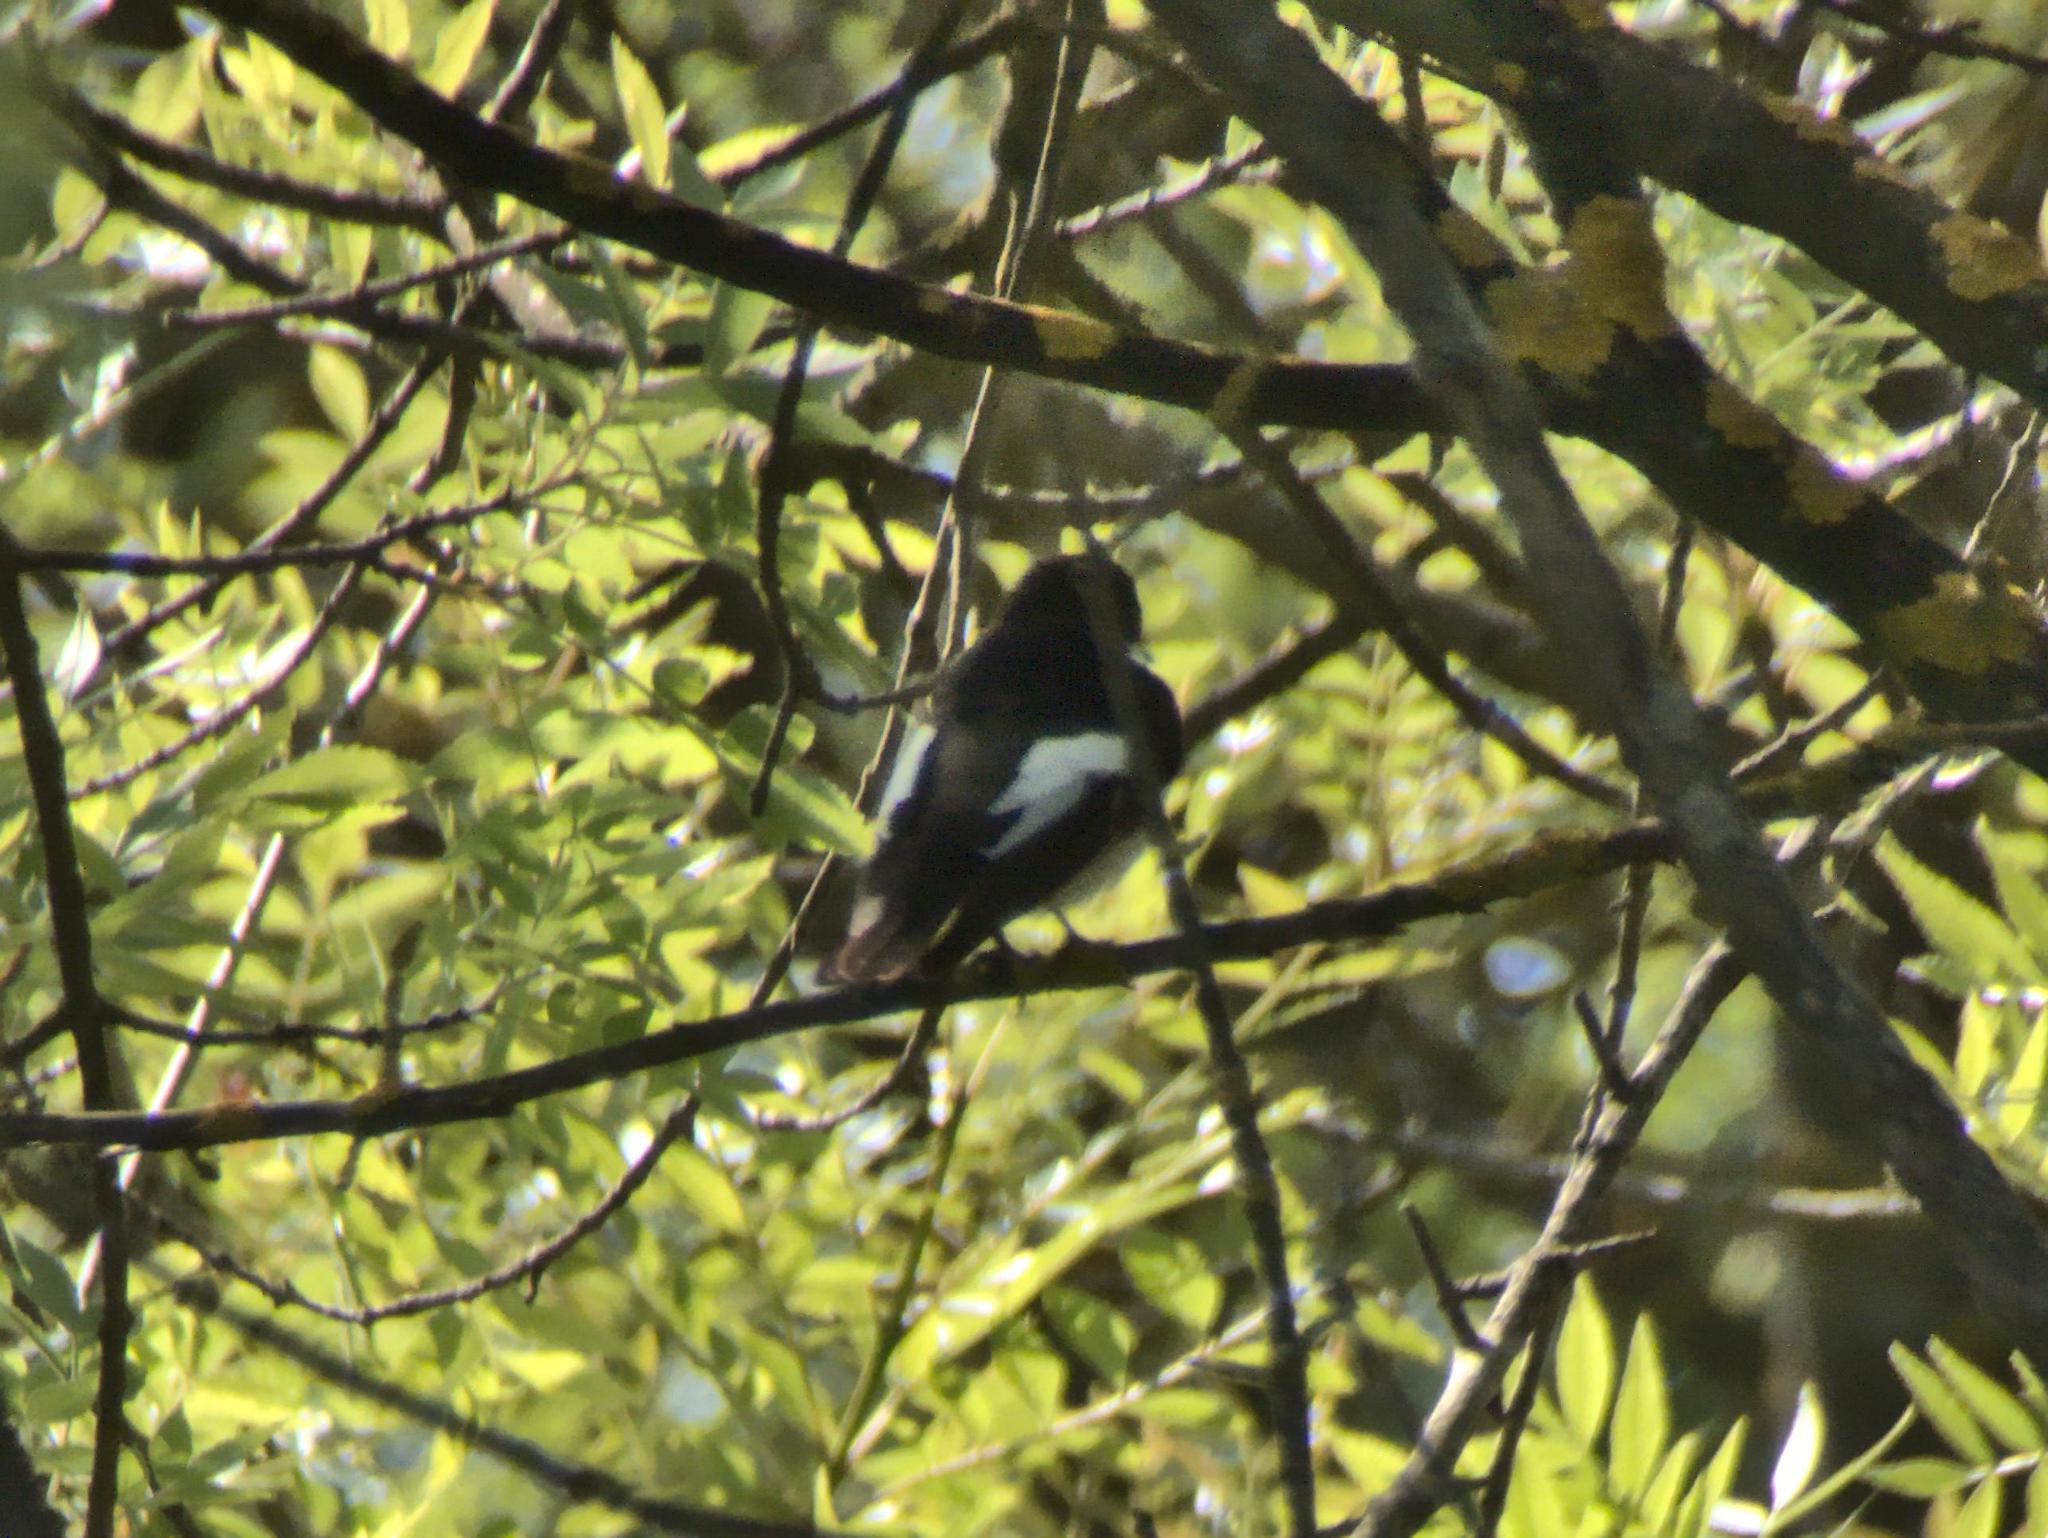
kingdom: Animalia
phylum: Chordata
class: Aves
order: Passeriformes
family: Muscicapidae
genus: Ficedula
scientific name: Ficedula hypoleuca
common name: European pied flycatcher
